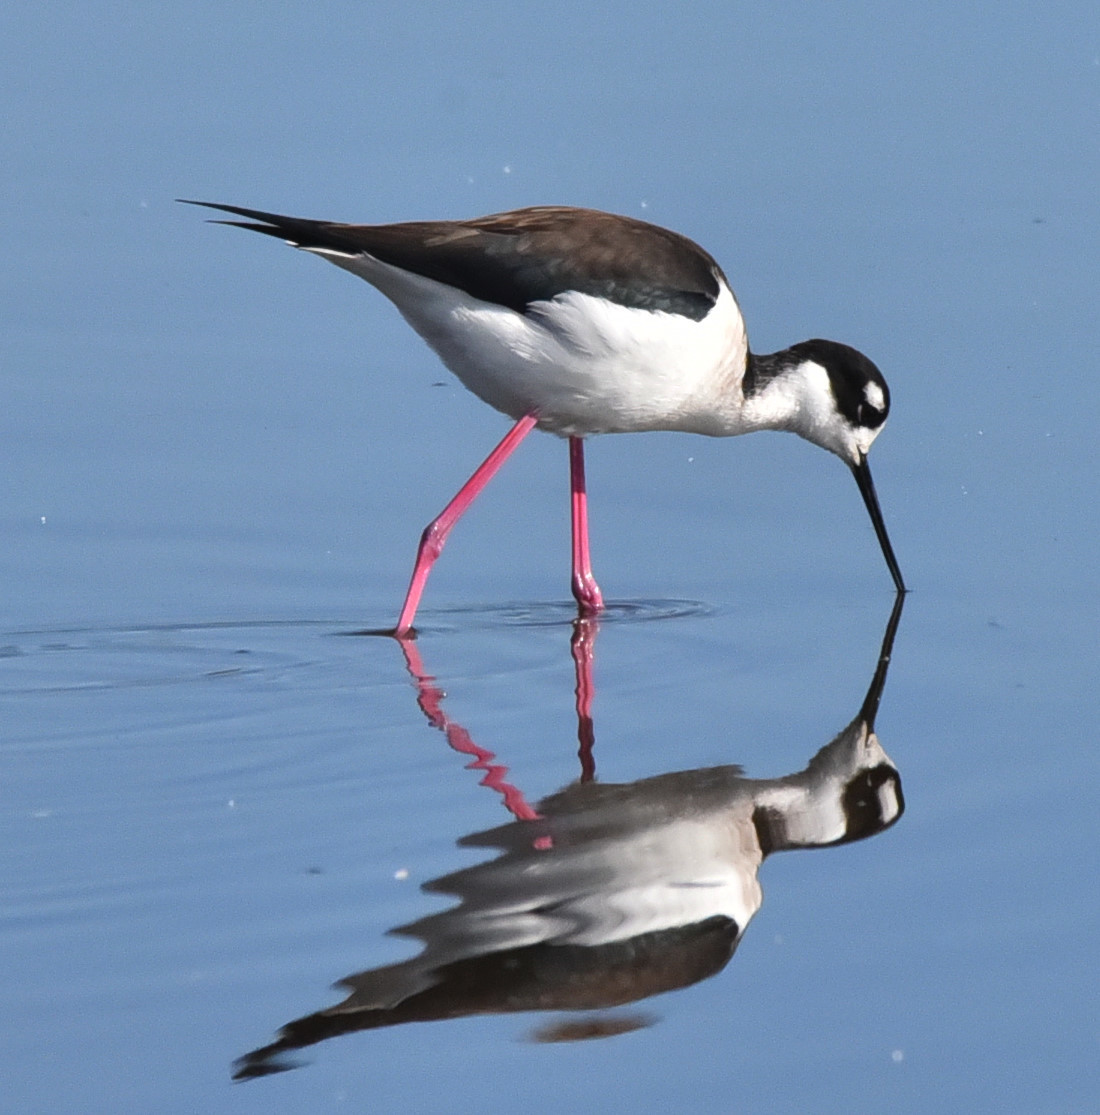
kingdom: Animalia
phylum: Chordata
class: Aves
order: Charadriiformes
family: Recurvirostridae
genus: Himantopus
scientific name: Himantopus mexicanus
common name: Black-necked stilt
